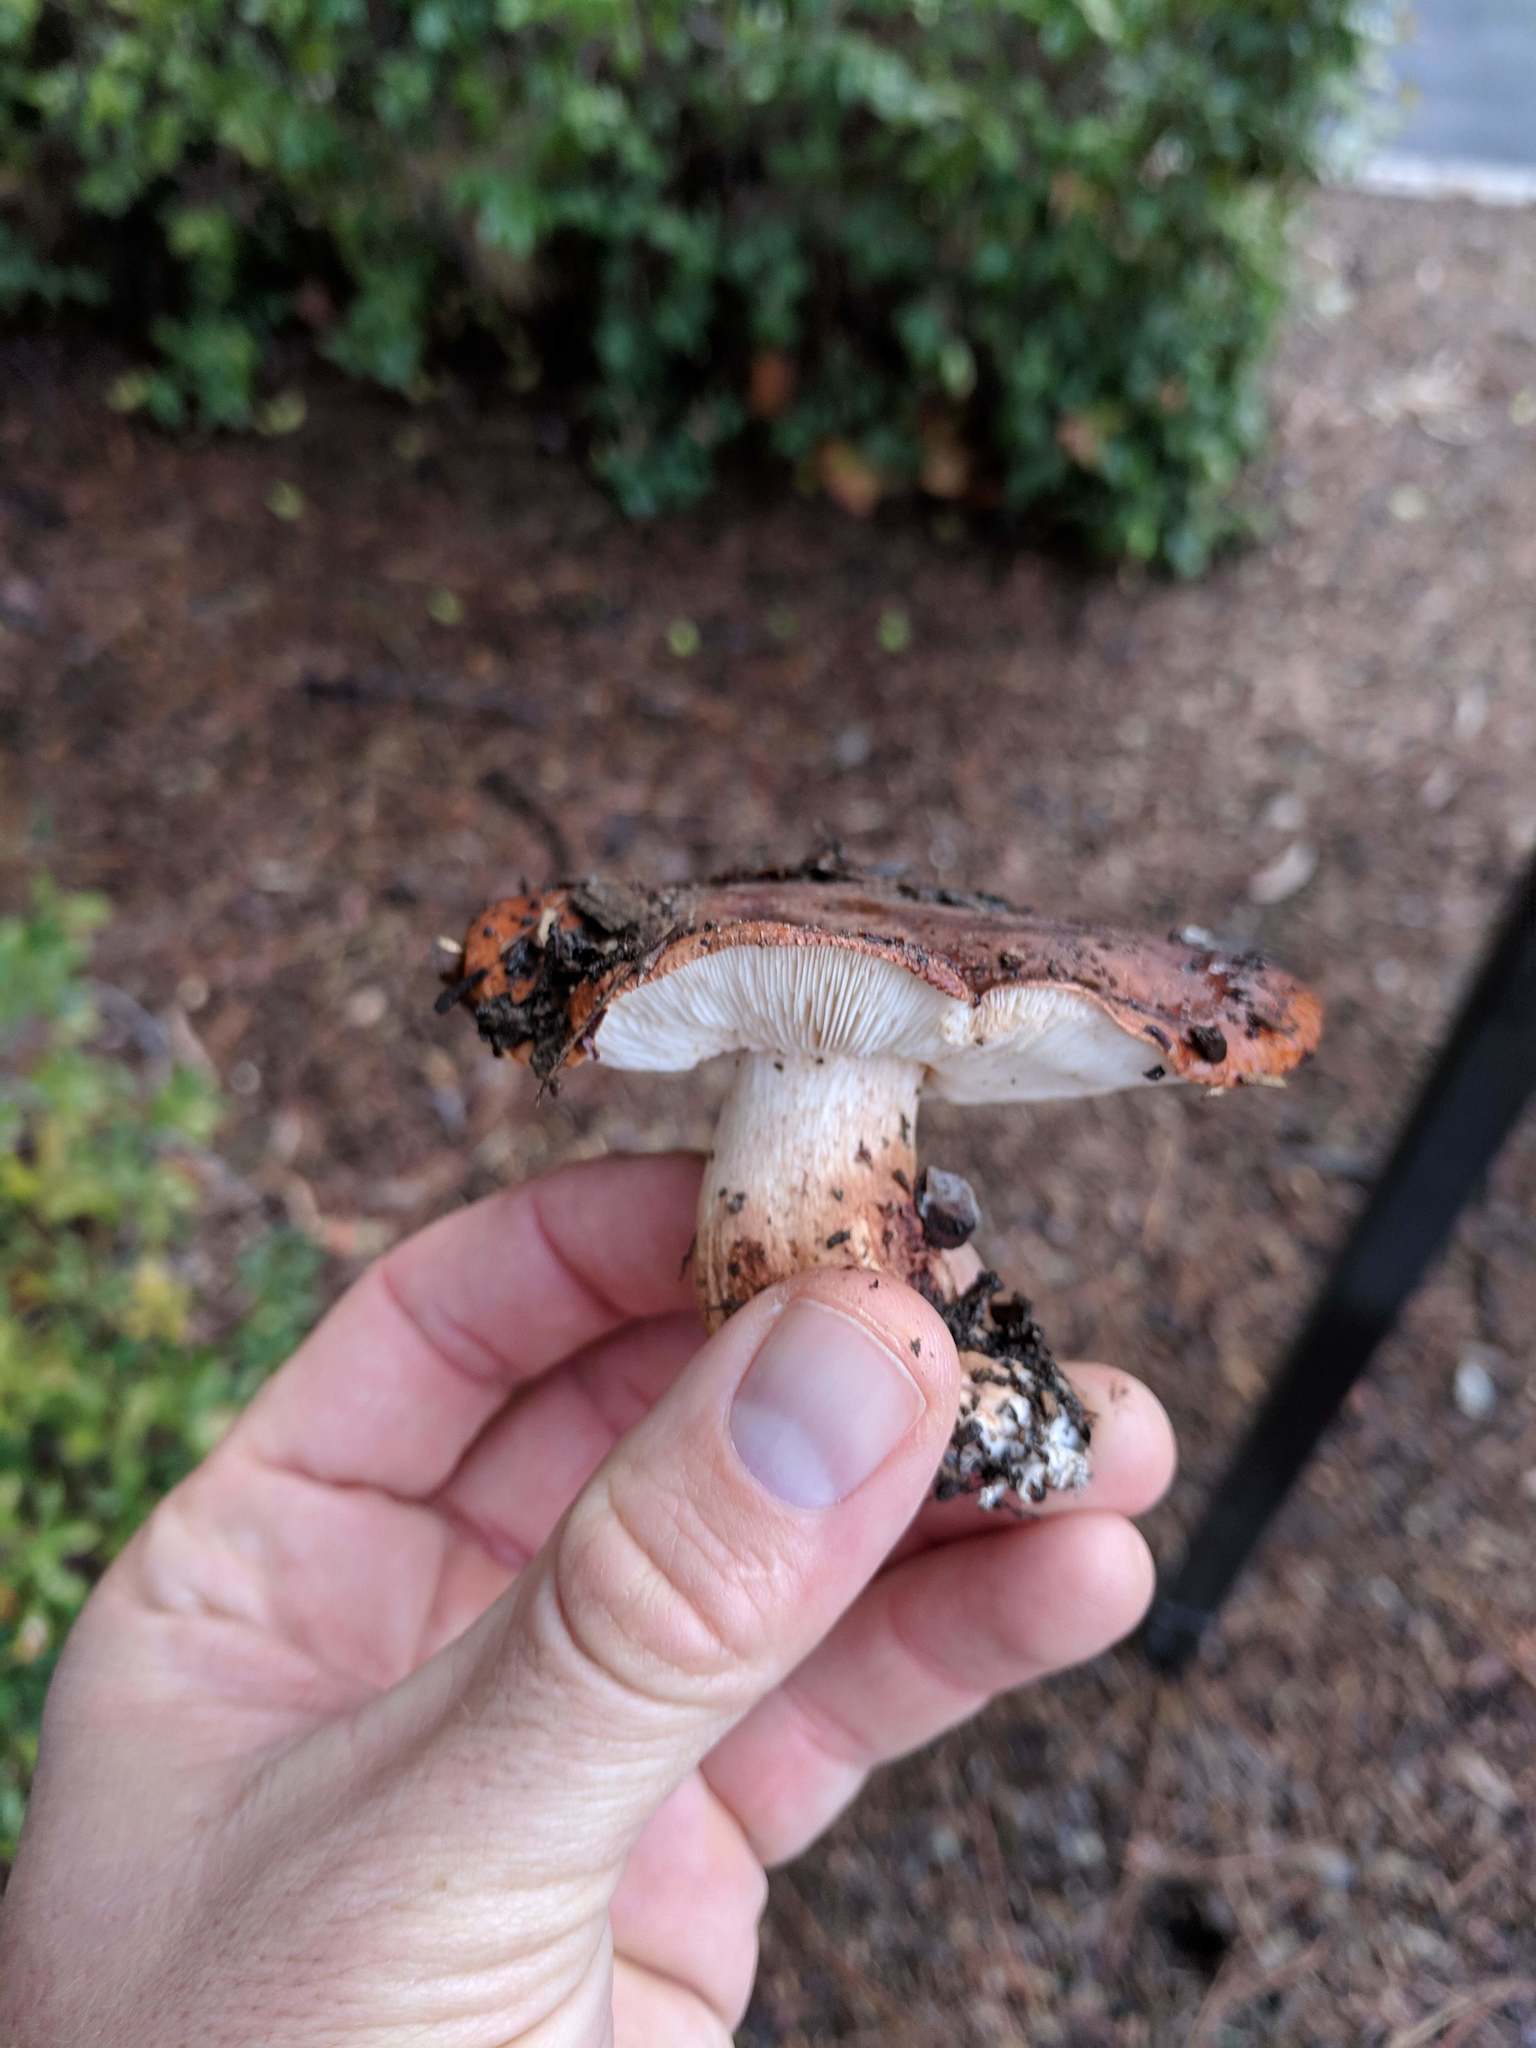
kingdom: Fungi
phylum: Basidiomycota
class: Agaricomycetes
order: Agaricales
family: Tricholomataceae
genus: Tricholoma
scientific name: Tricholoma fracticum
